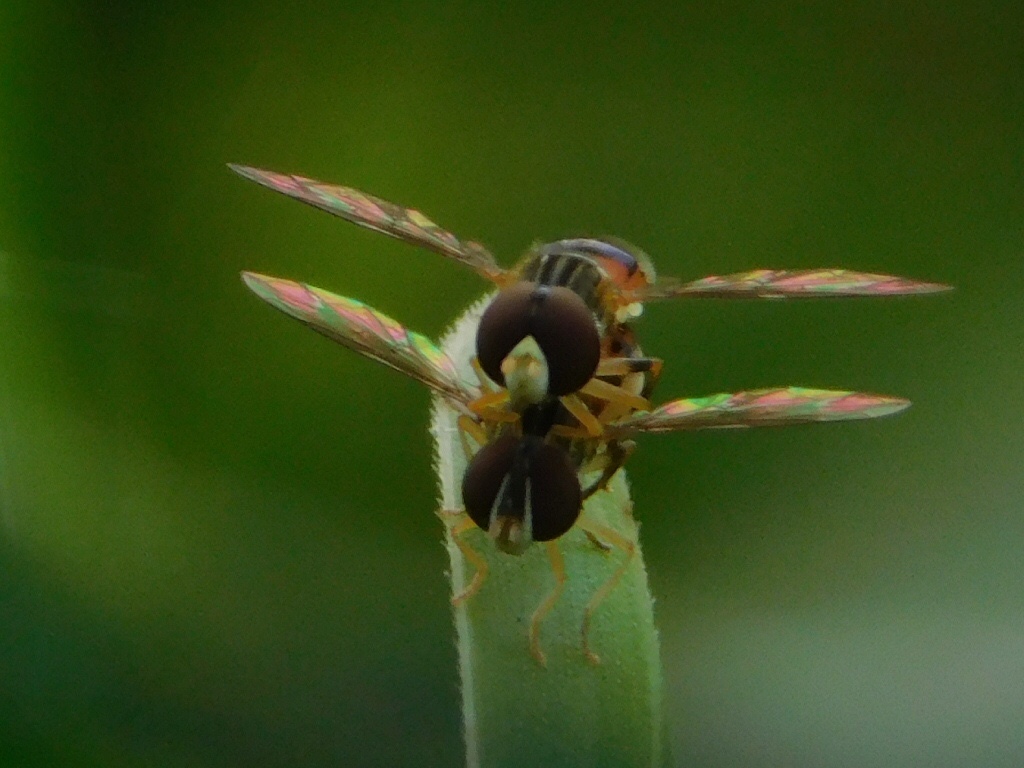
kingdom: Animalia
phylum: Arthropoda
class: Insecta
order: Diptera
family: Syrphidae
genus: Toxomerus
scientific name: Toxomerus boscii
